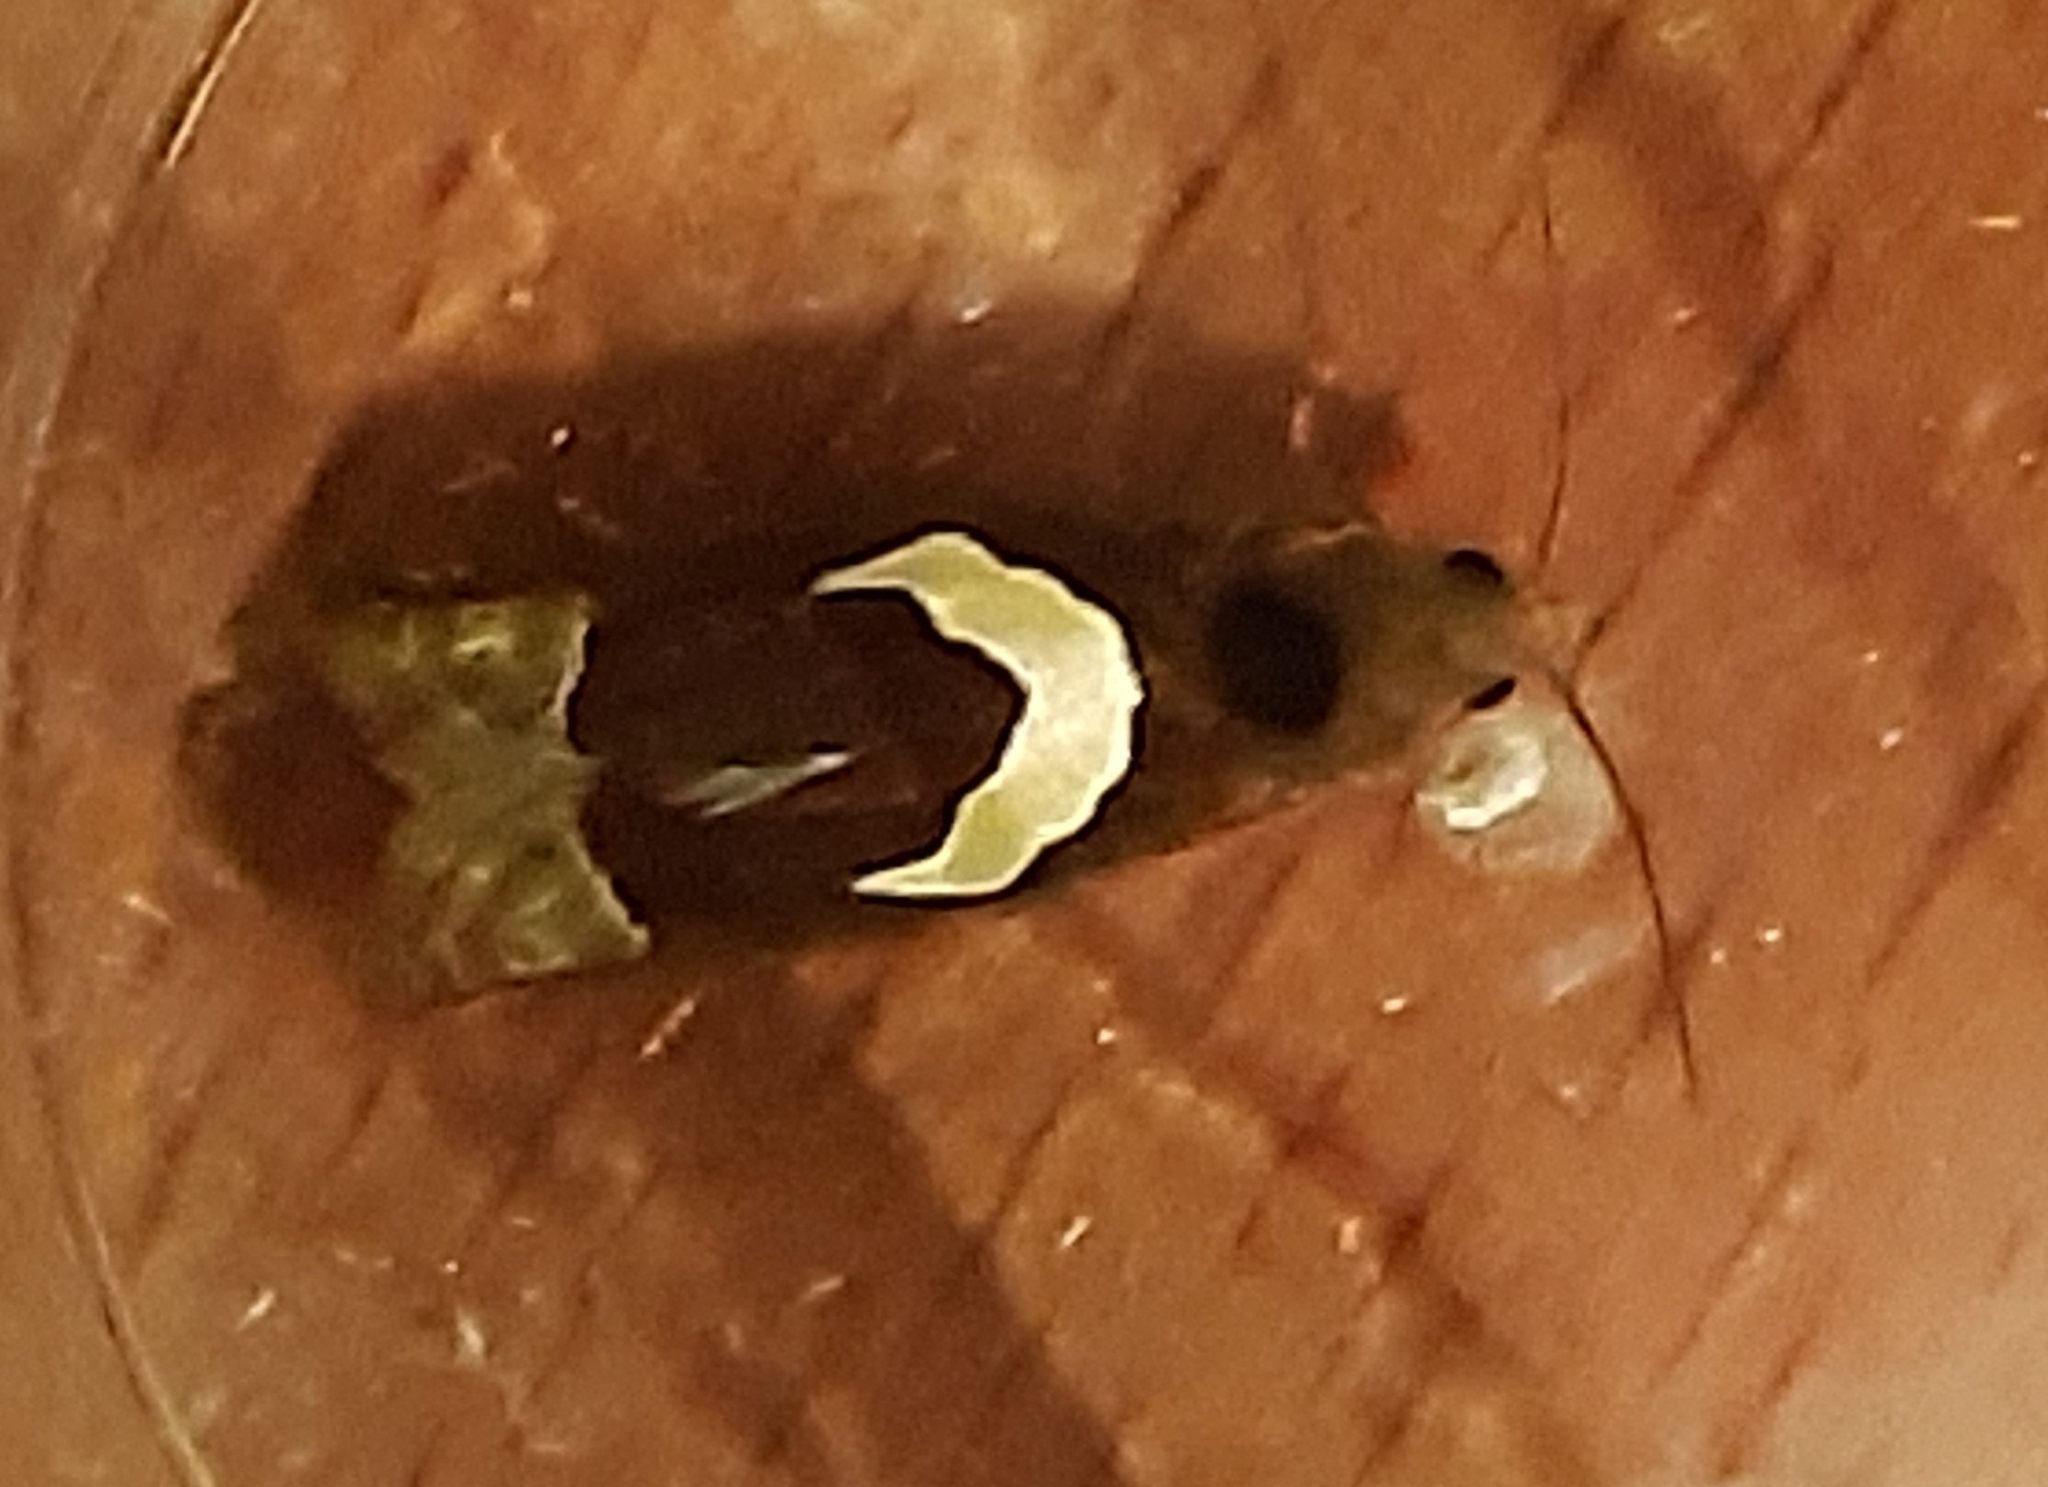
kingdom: Animalia
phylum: Arthropoda
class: Insecta
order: Lepidoptera
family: Tortricidae
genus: Epiblema
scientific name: Epiblema foenella
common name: White-foot bell
